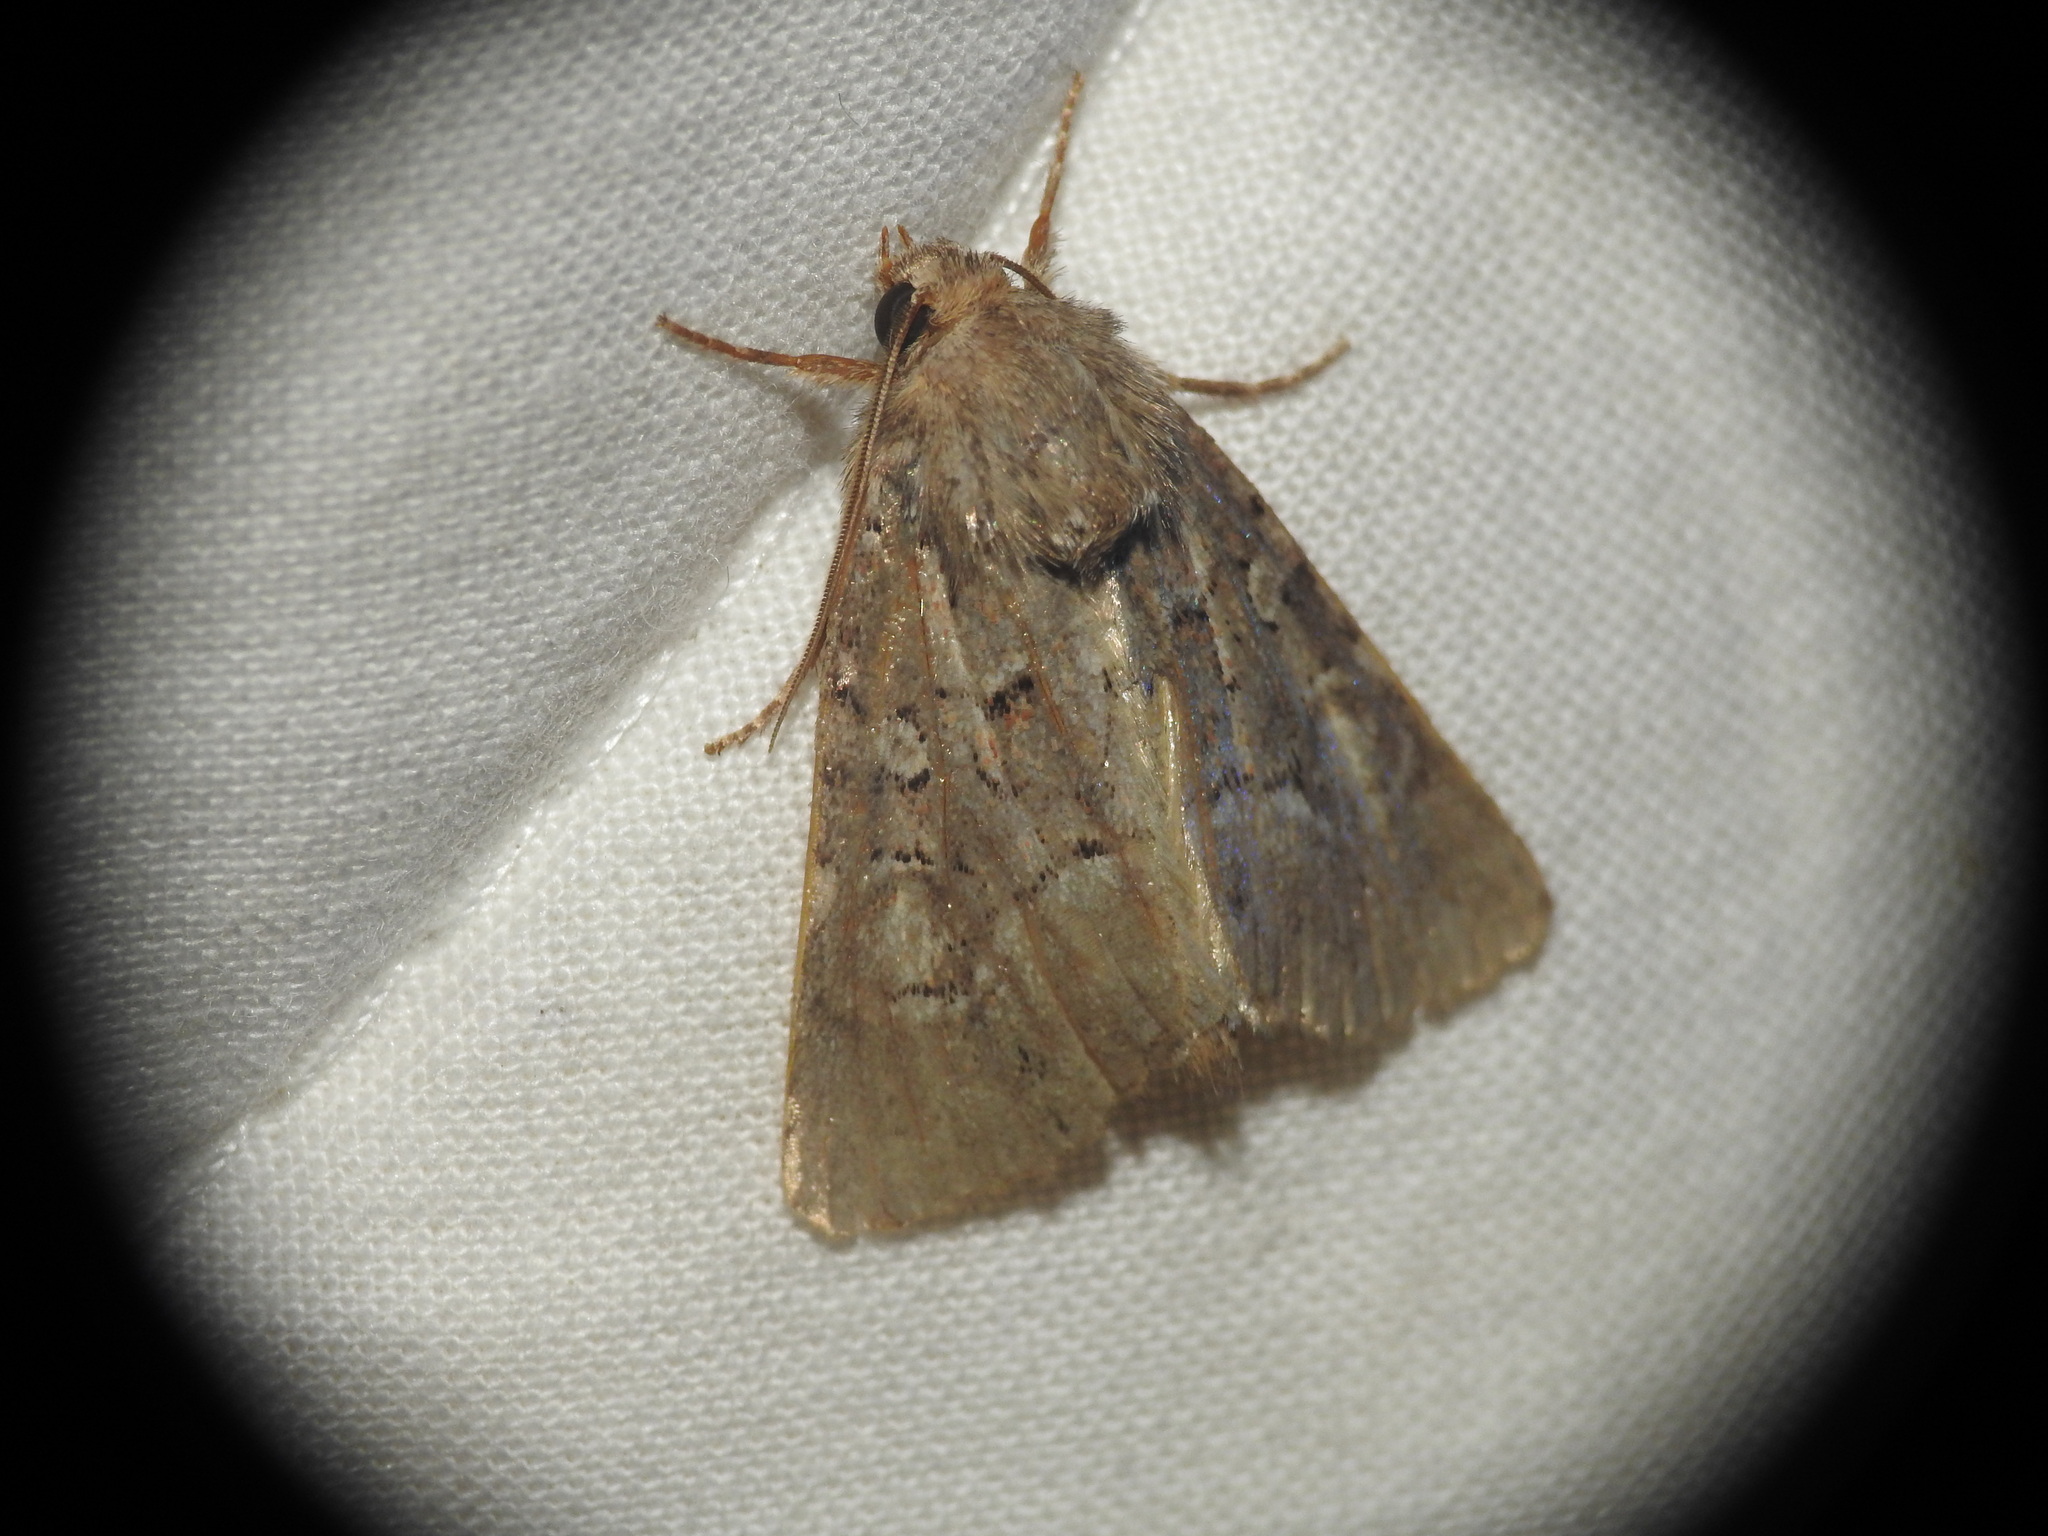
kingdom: Animalia
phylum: Arthropoda
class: Insecta
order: Lepidoptera
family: Noctuidae
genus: Thalpophila
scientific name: Thalpophila matura
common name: Straw underwing
